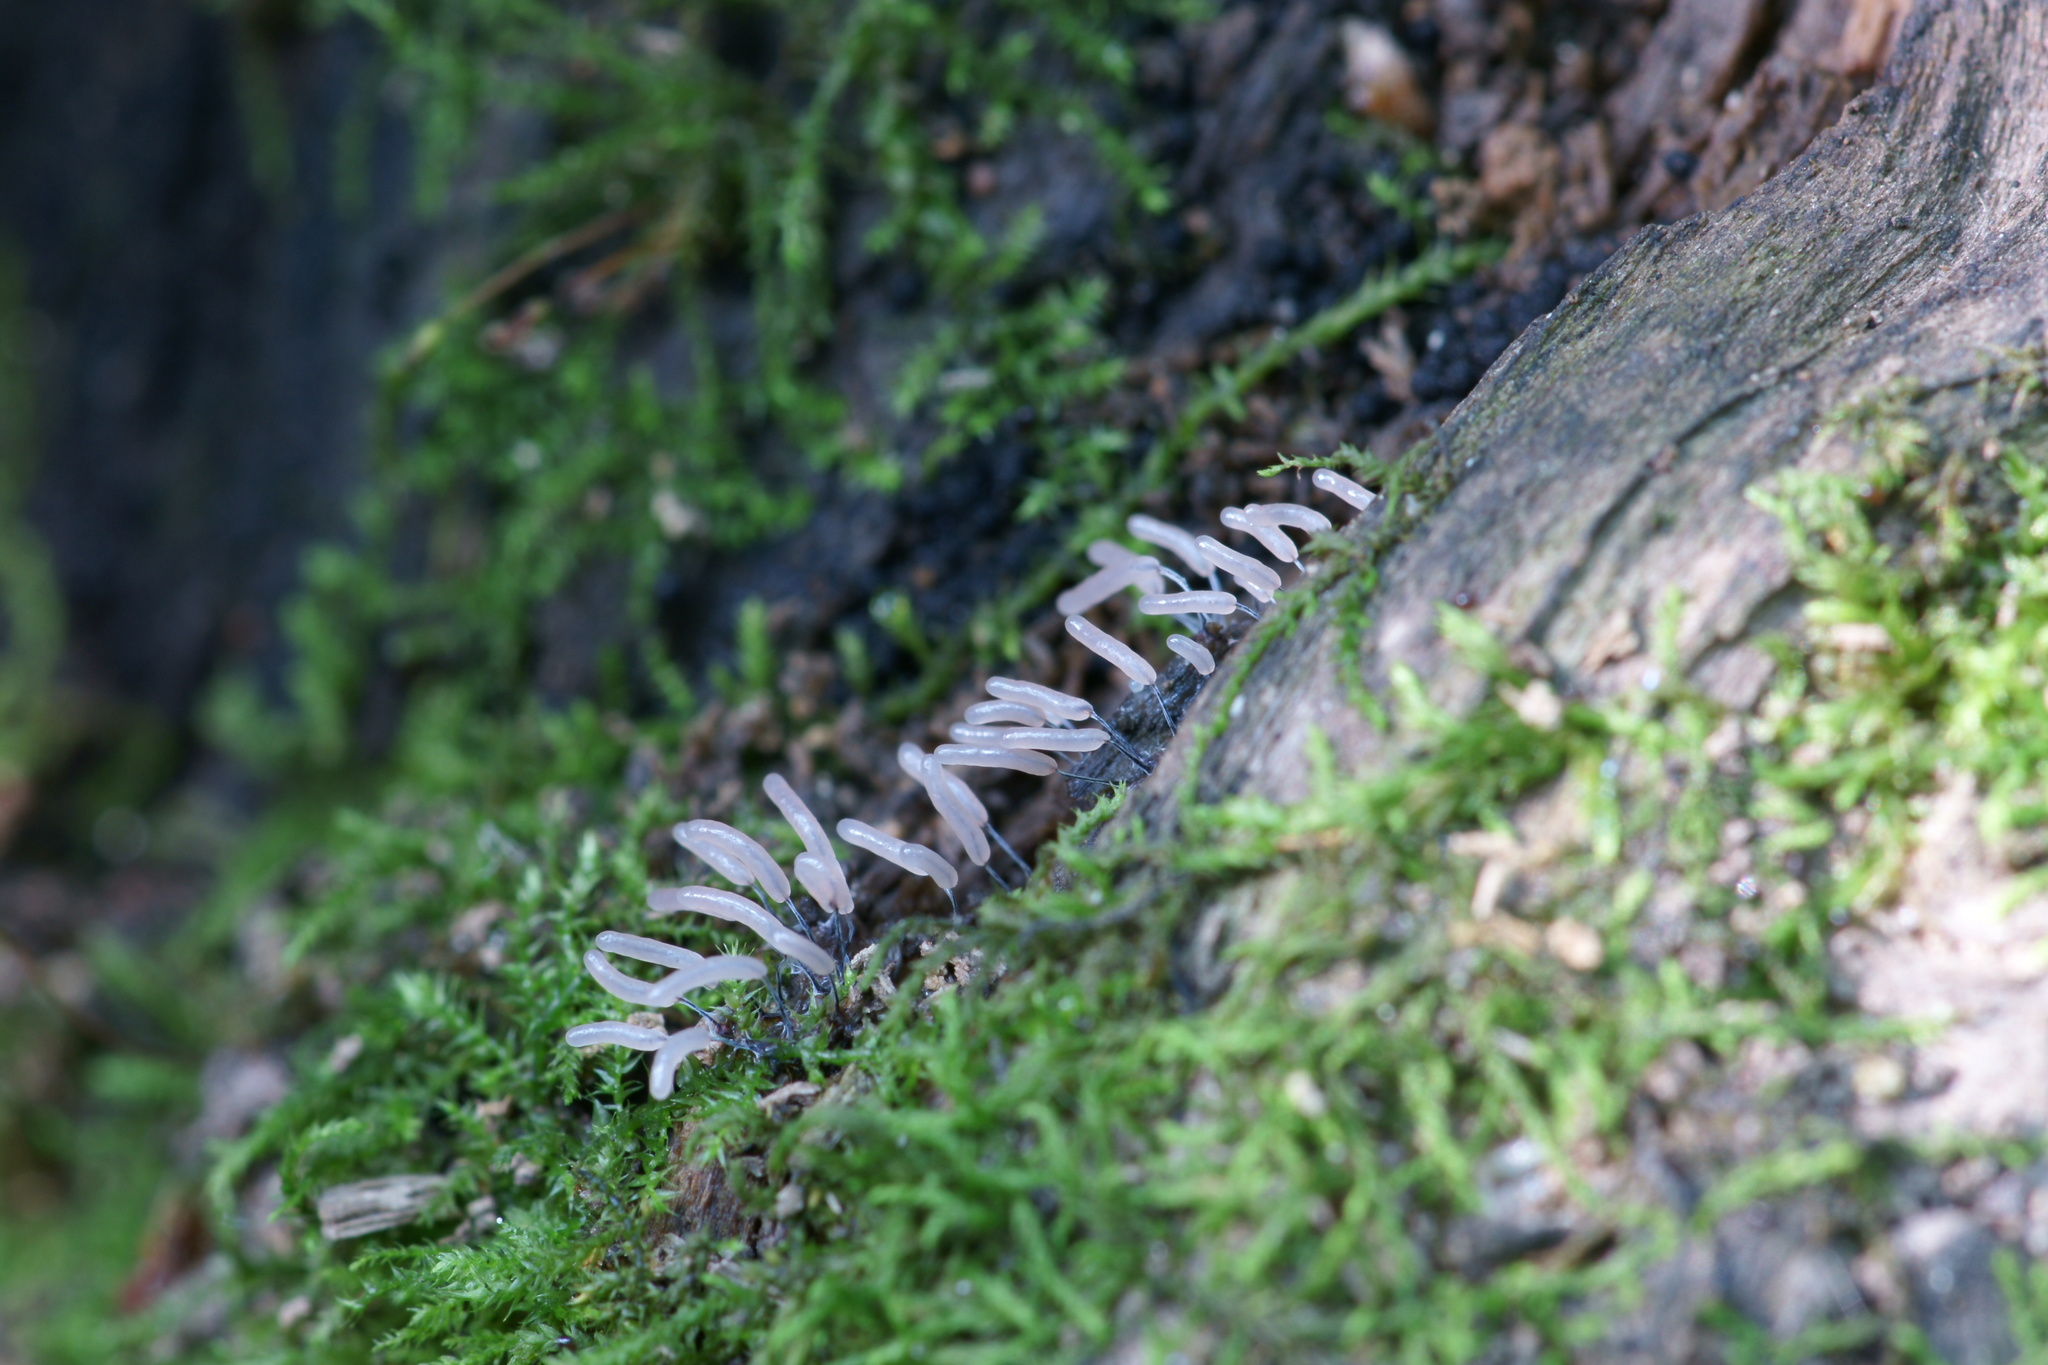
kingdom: Protozoa
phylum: Mycetozoa
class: Myxomycetes
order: Stemonitidales
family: Stemonitidaceae
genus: Stemonitopsis
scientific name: Stemonitopsis typhina
